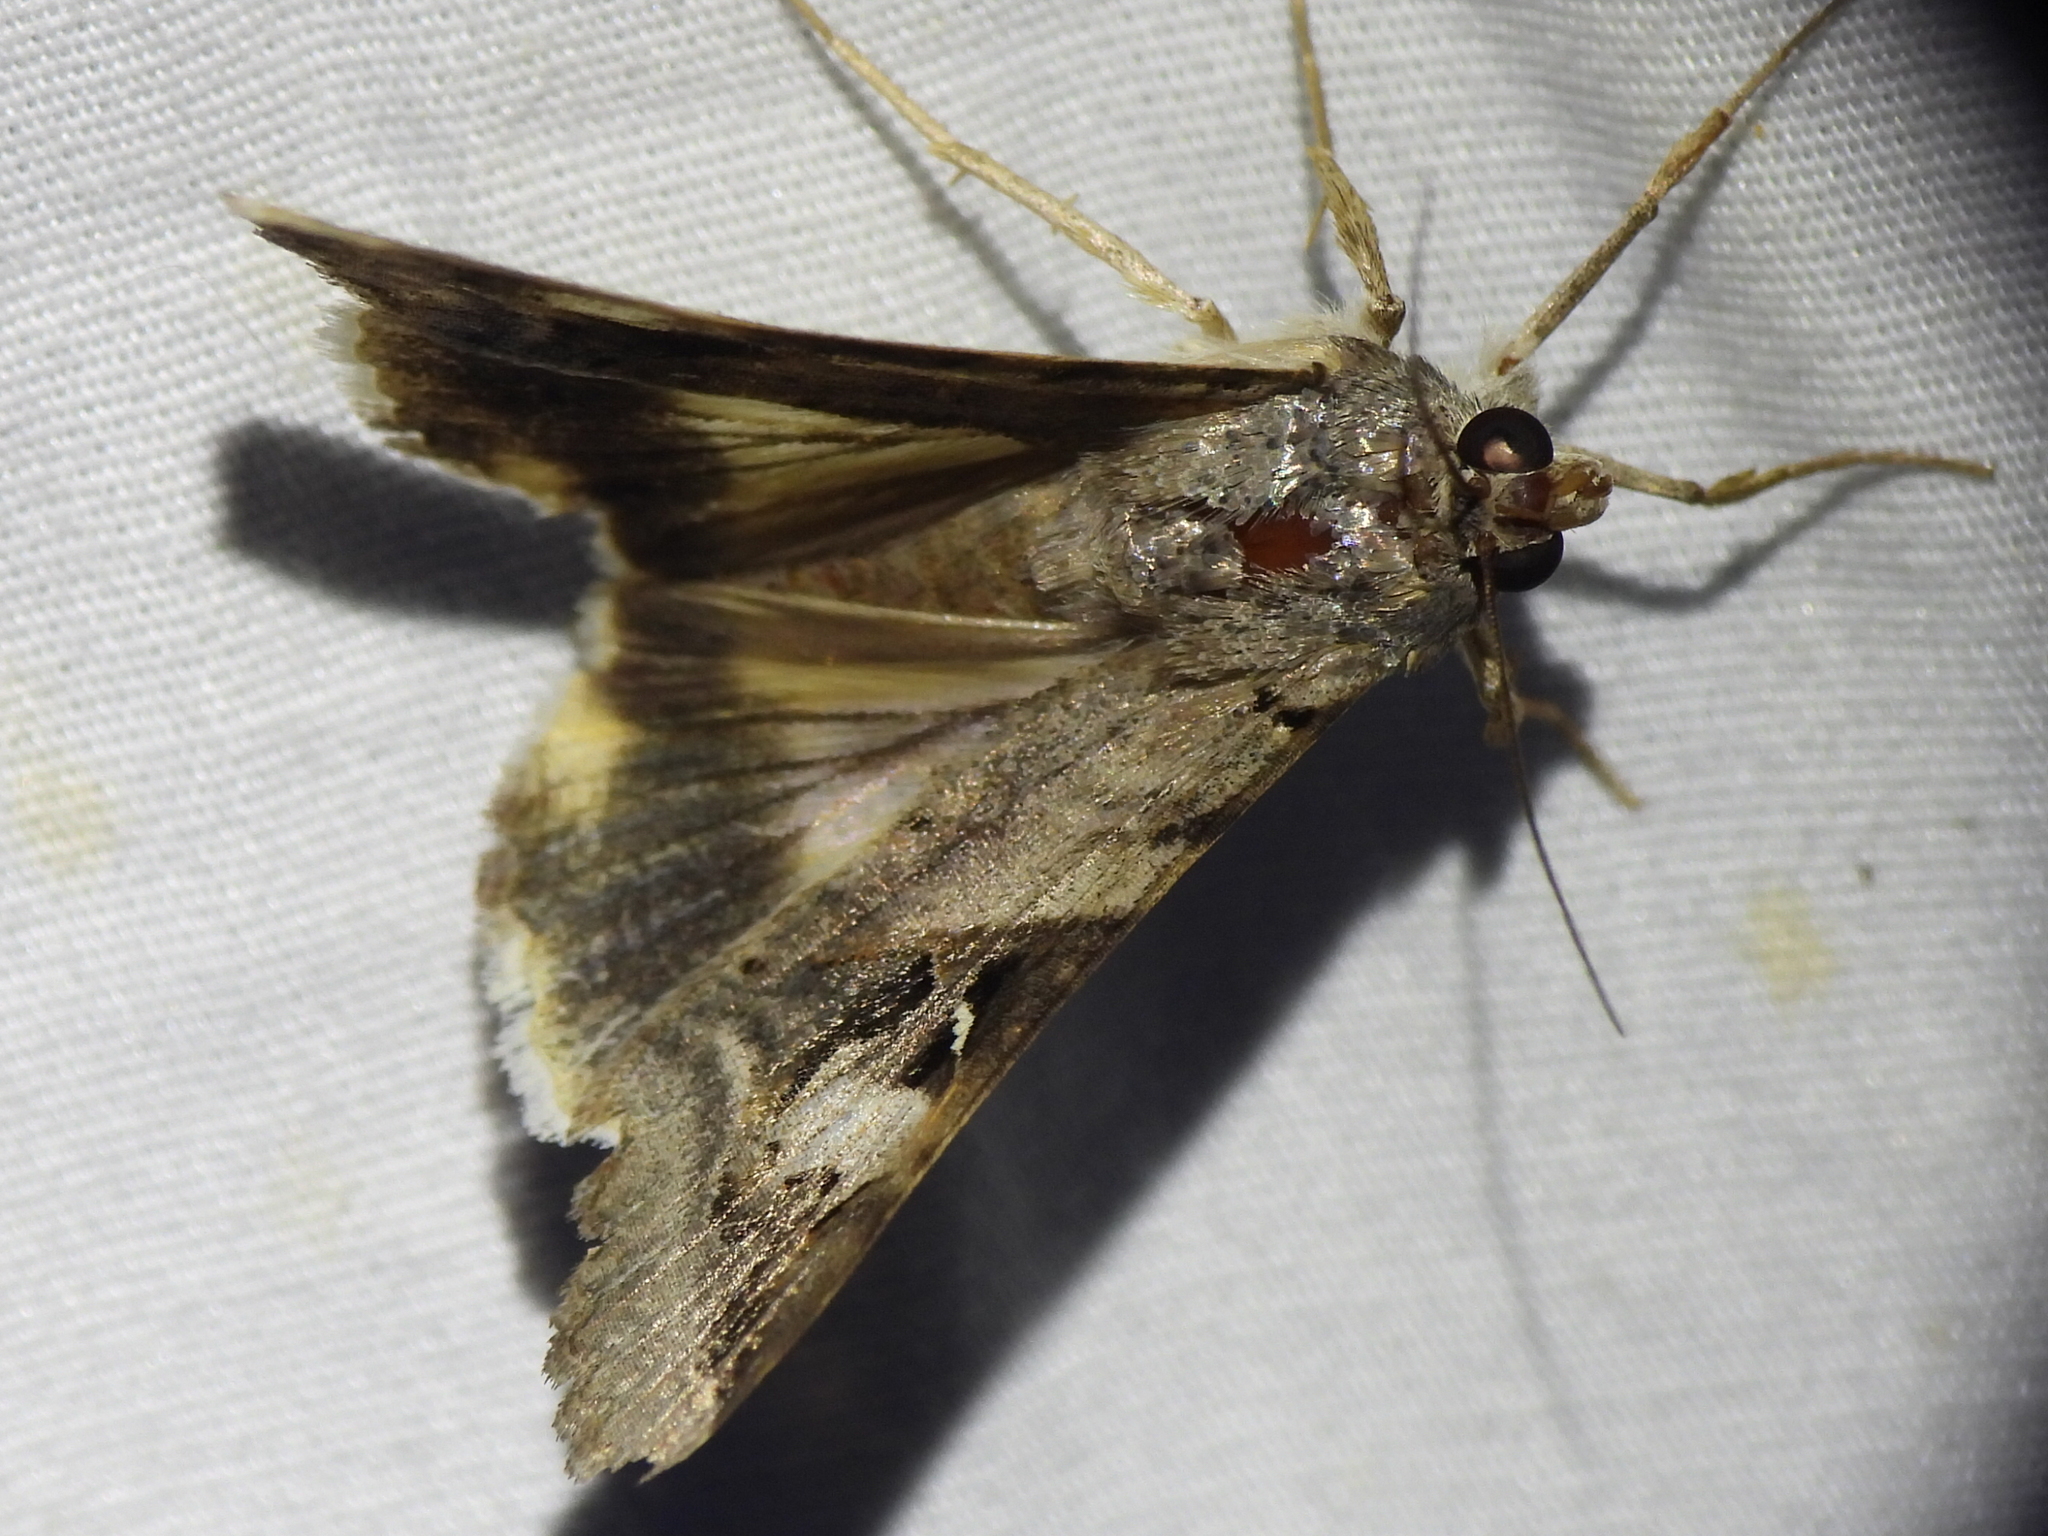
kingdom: Animalia
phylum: Arthropoda
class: Insecta
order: Lepidoptera
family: Erebidae
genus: Melipotis
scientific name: Melipotis indomita
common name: Moth
